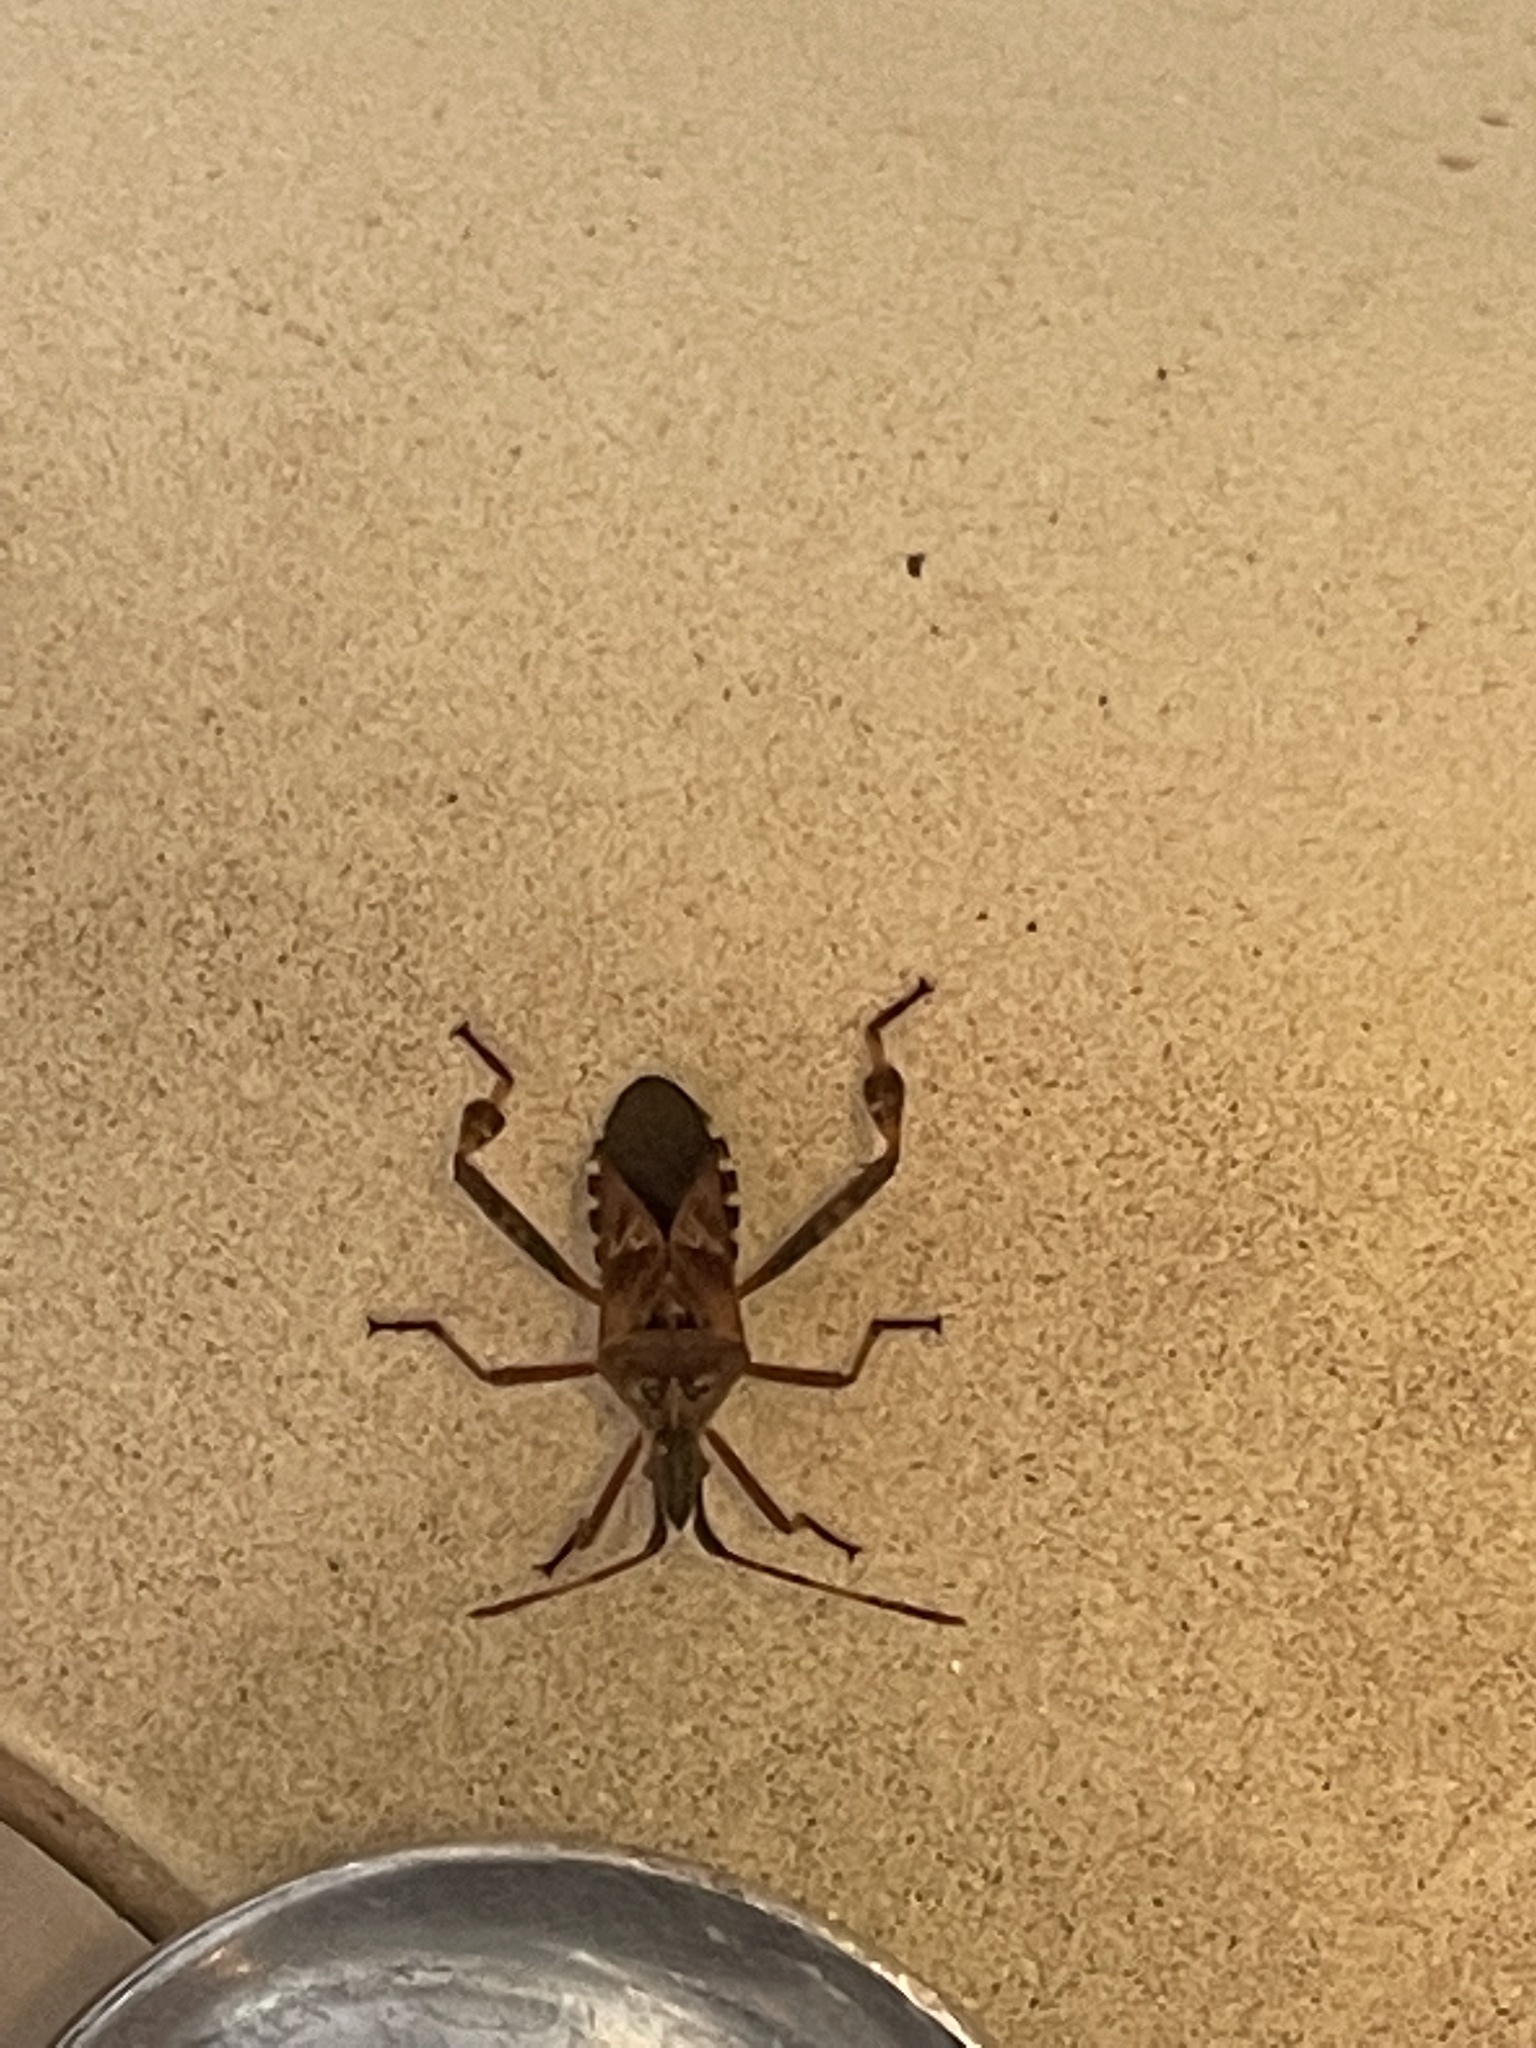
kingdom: Animalia
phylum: Arthropoda
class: Insecta
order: Hemiptera
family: Coreidae
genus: Leptoglossus
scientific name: Leptoglossus occidentalis
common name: Western conifer-seed bug
